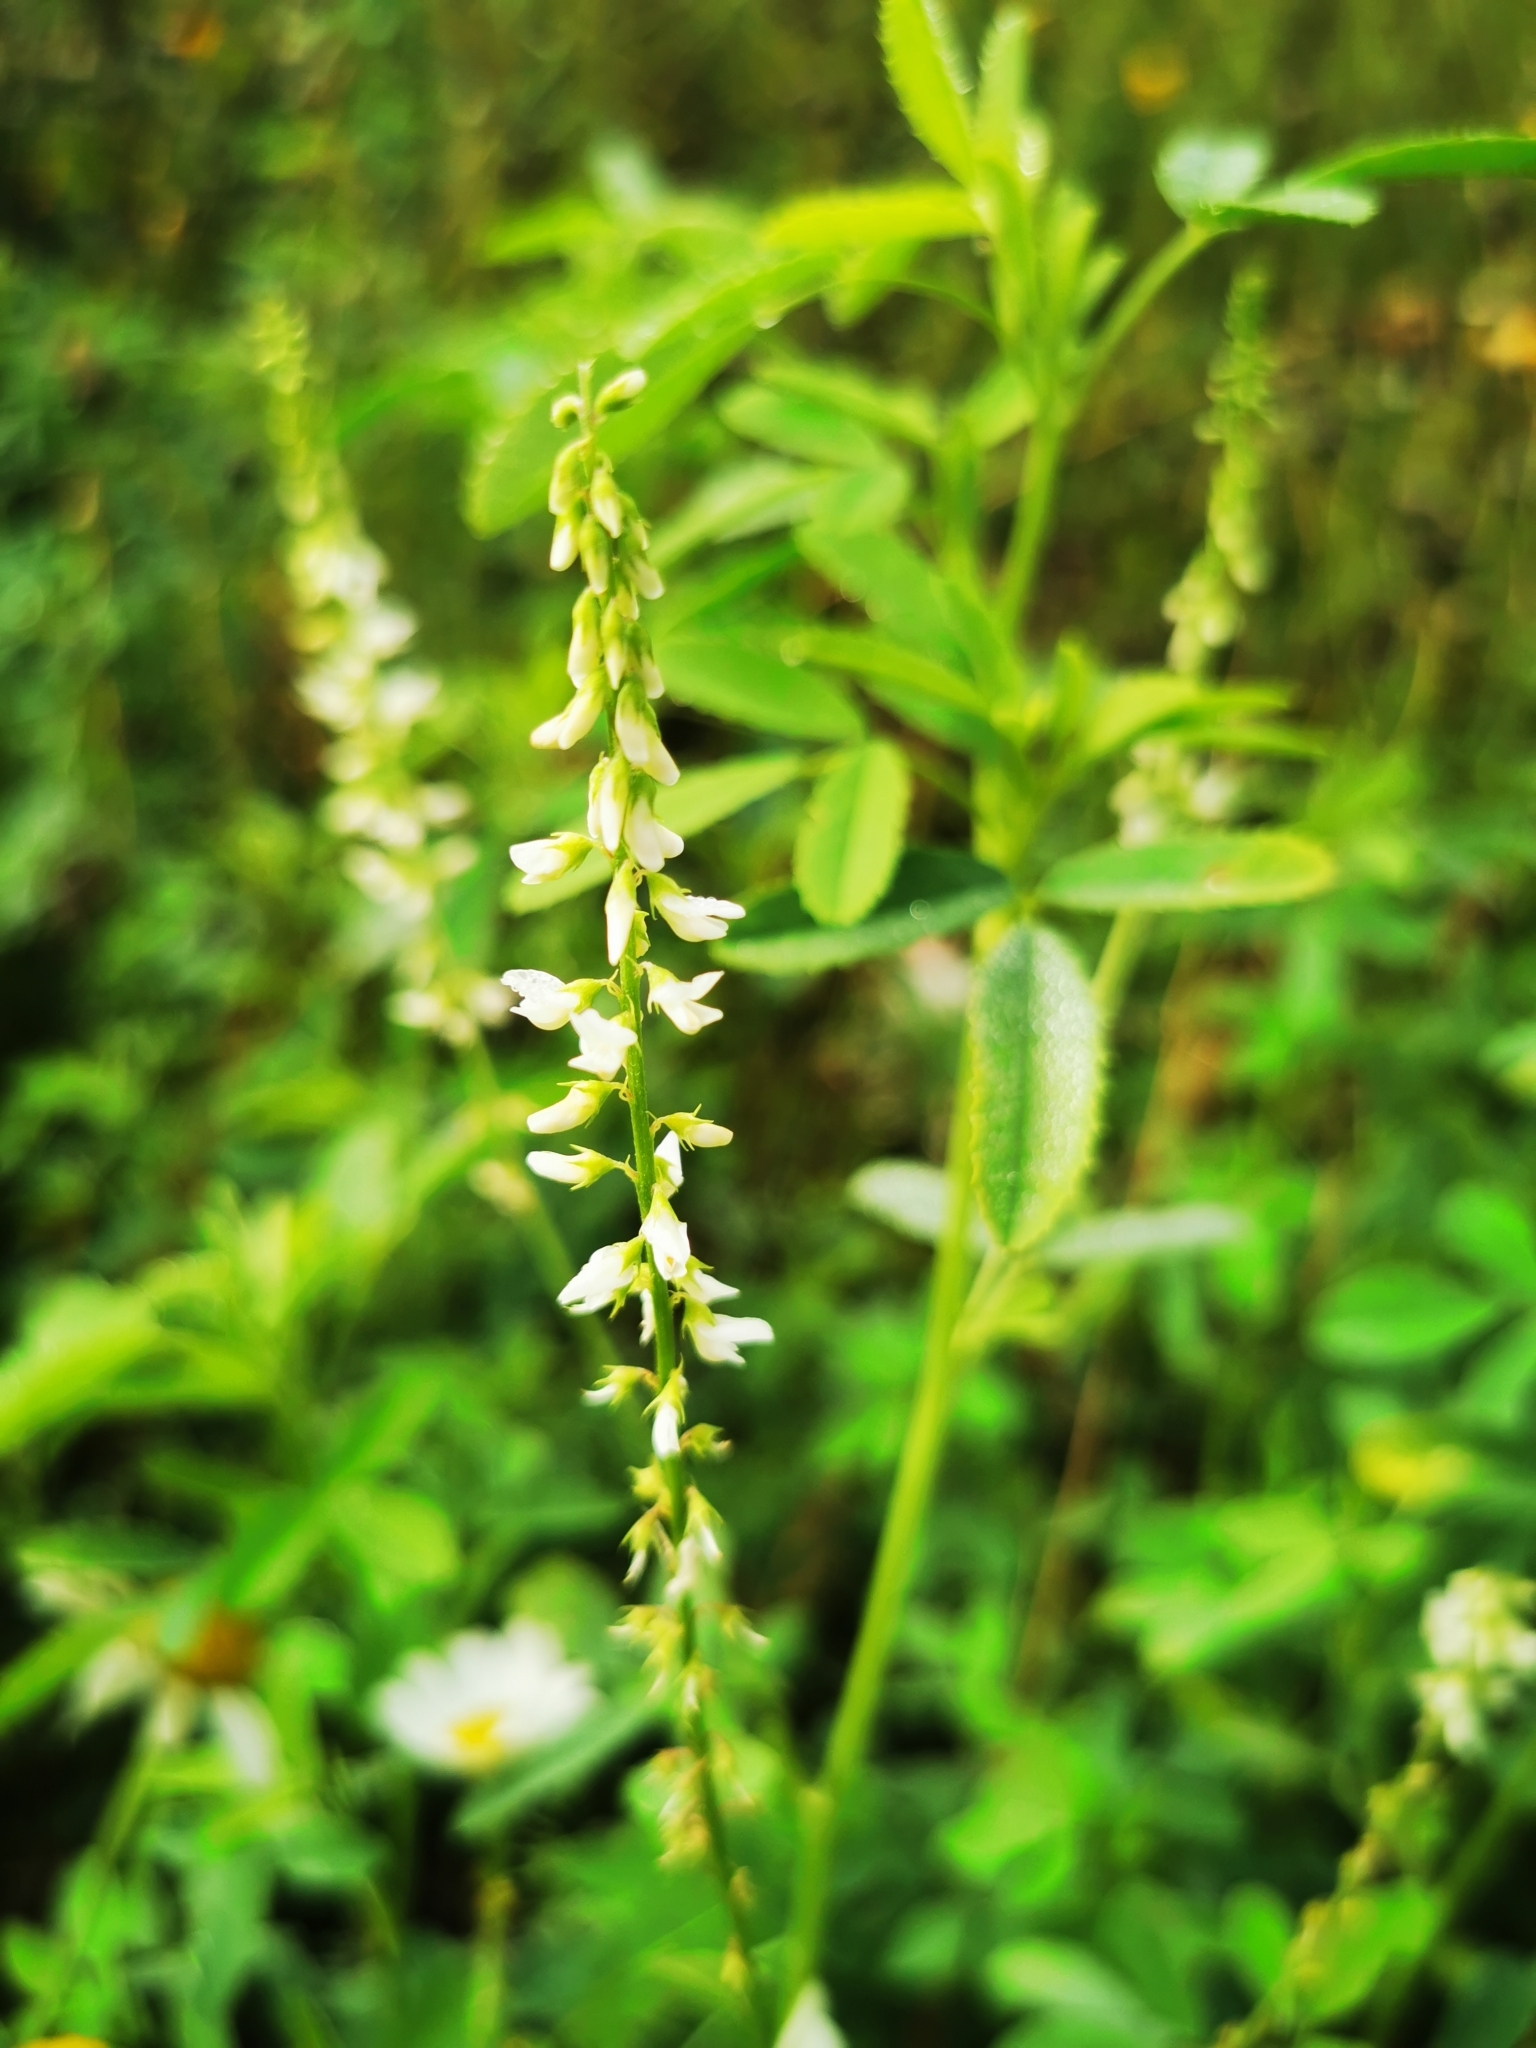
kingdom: Plantae
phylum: Tracheophyta
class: Magnoliopsida
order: Fabales
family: Fabaceae
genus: Melilotus
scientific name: Melilotus albus
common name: White melilot
